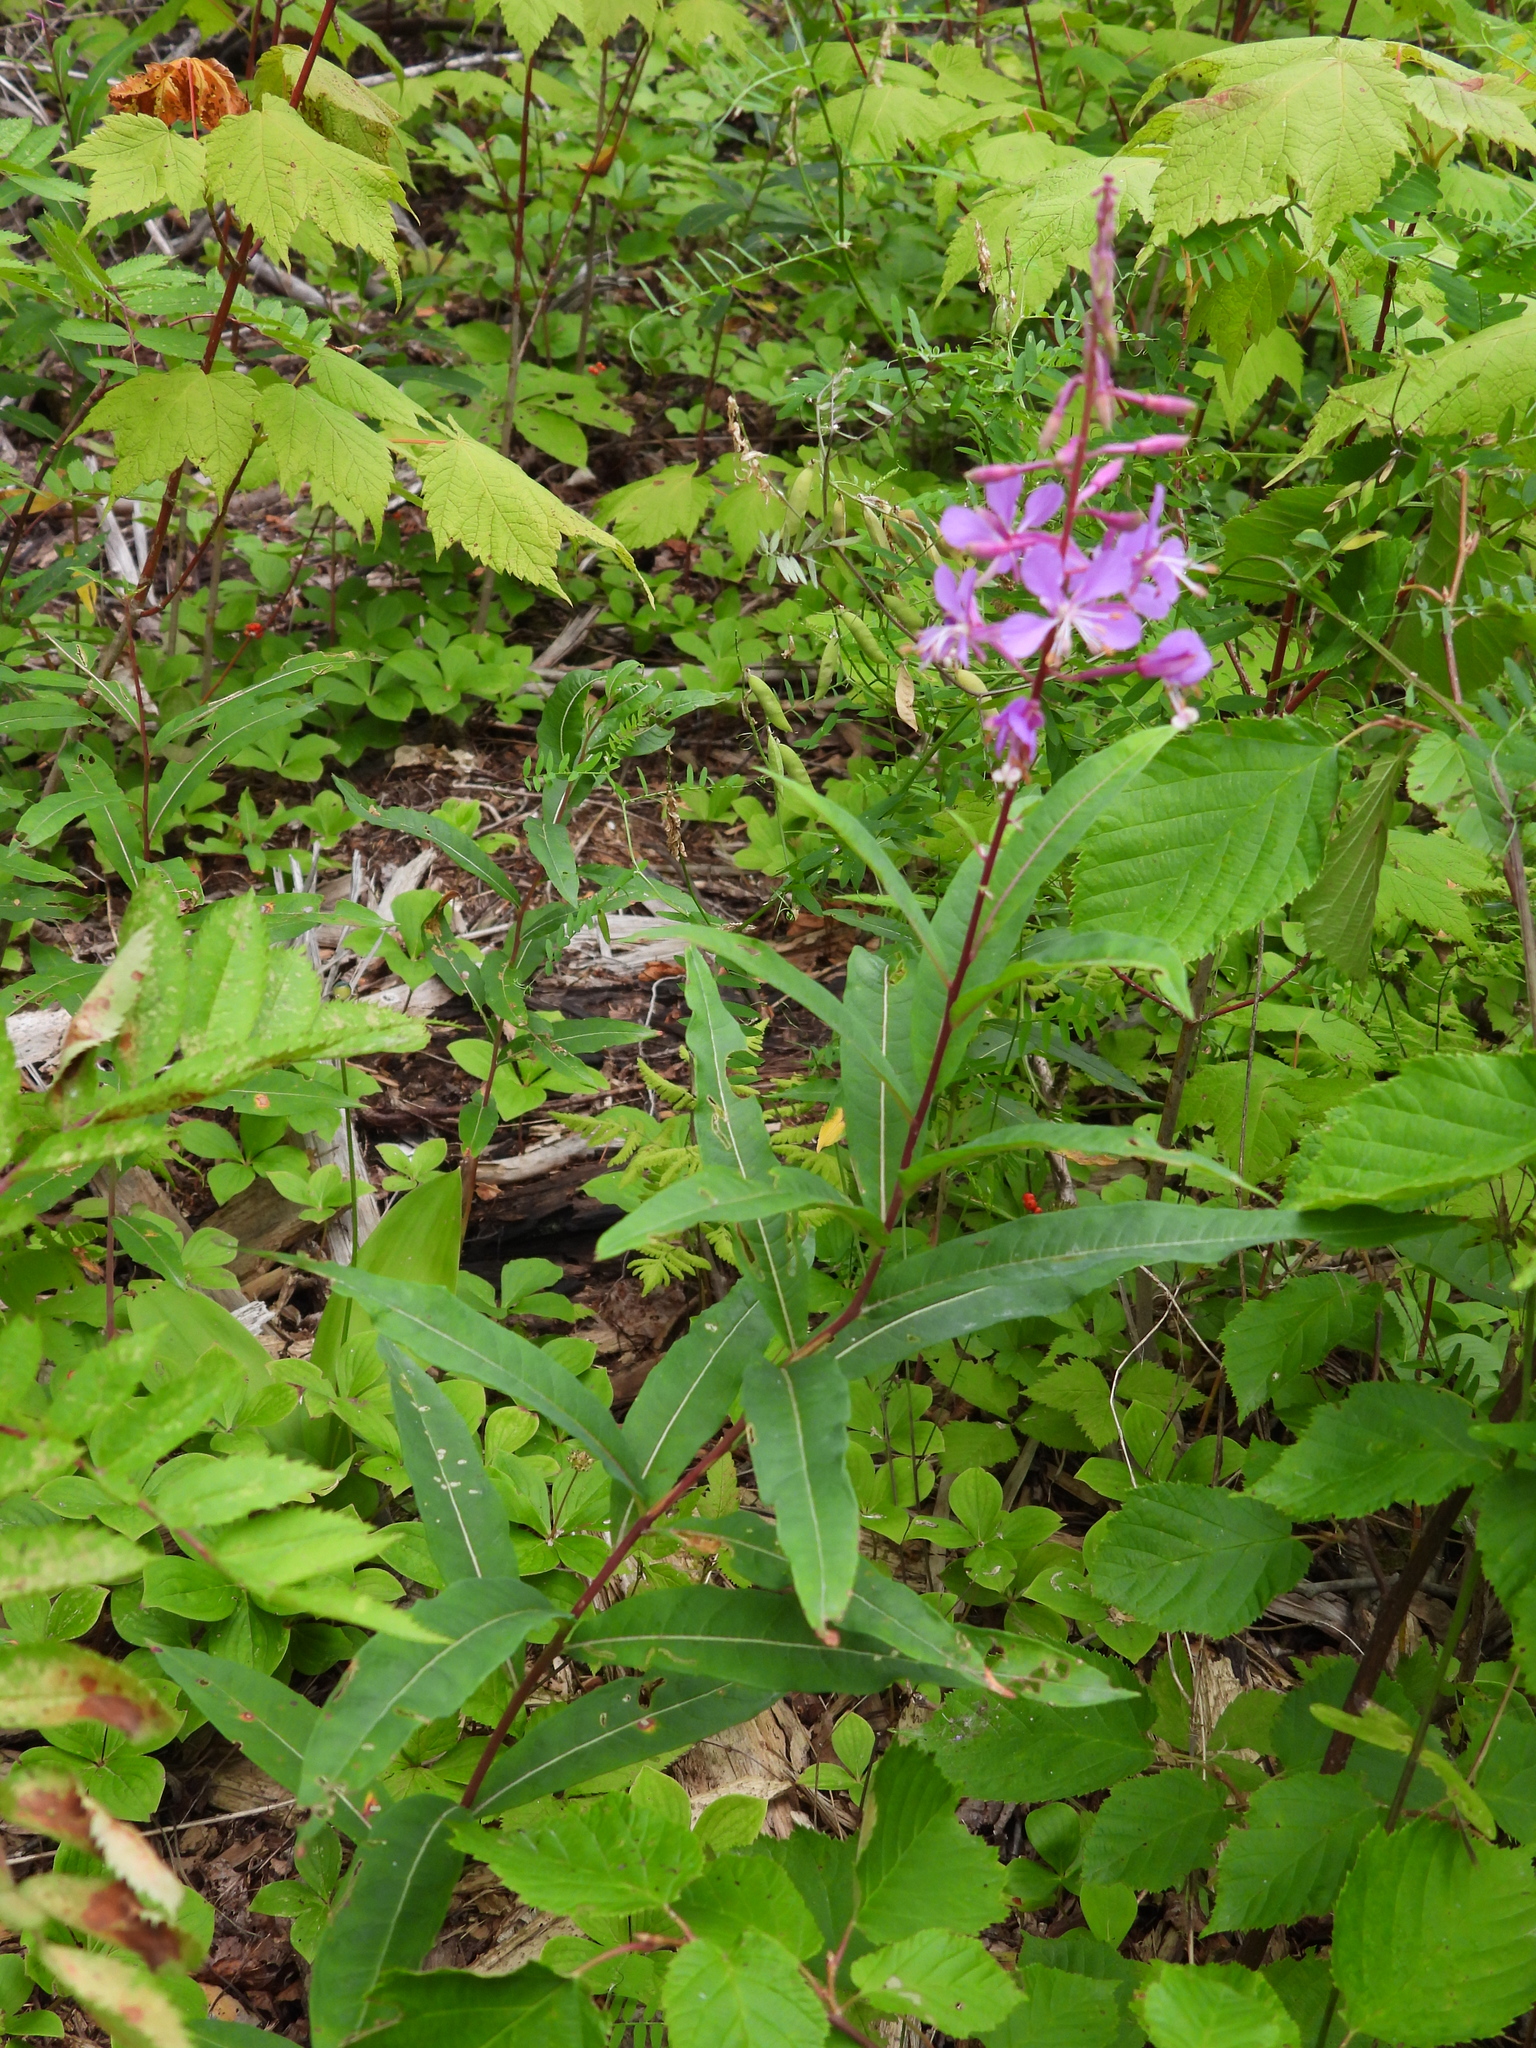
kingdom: Plantae
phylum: Tracheophyta
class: Magnoliopsida
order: Myrtales
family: Onagraceae
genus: Chamaenerion
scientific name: Chamaenerion angustifolium
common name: Fireweed
